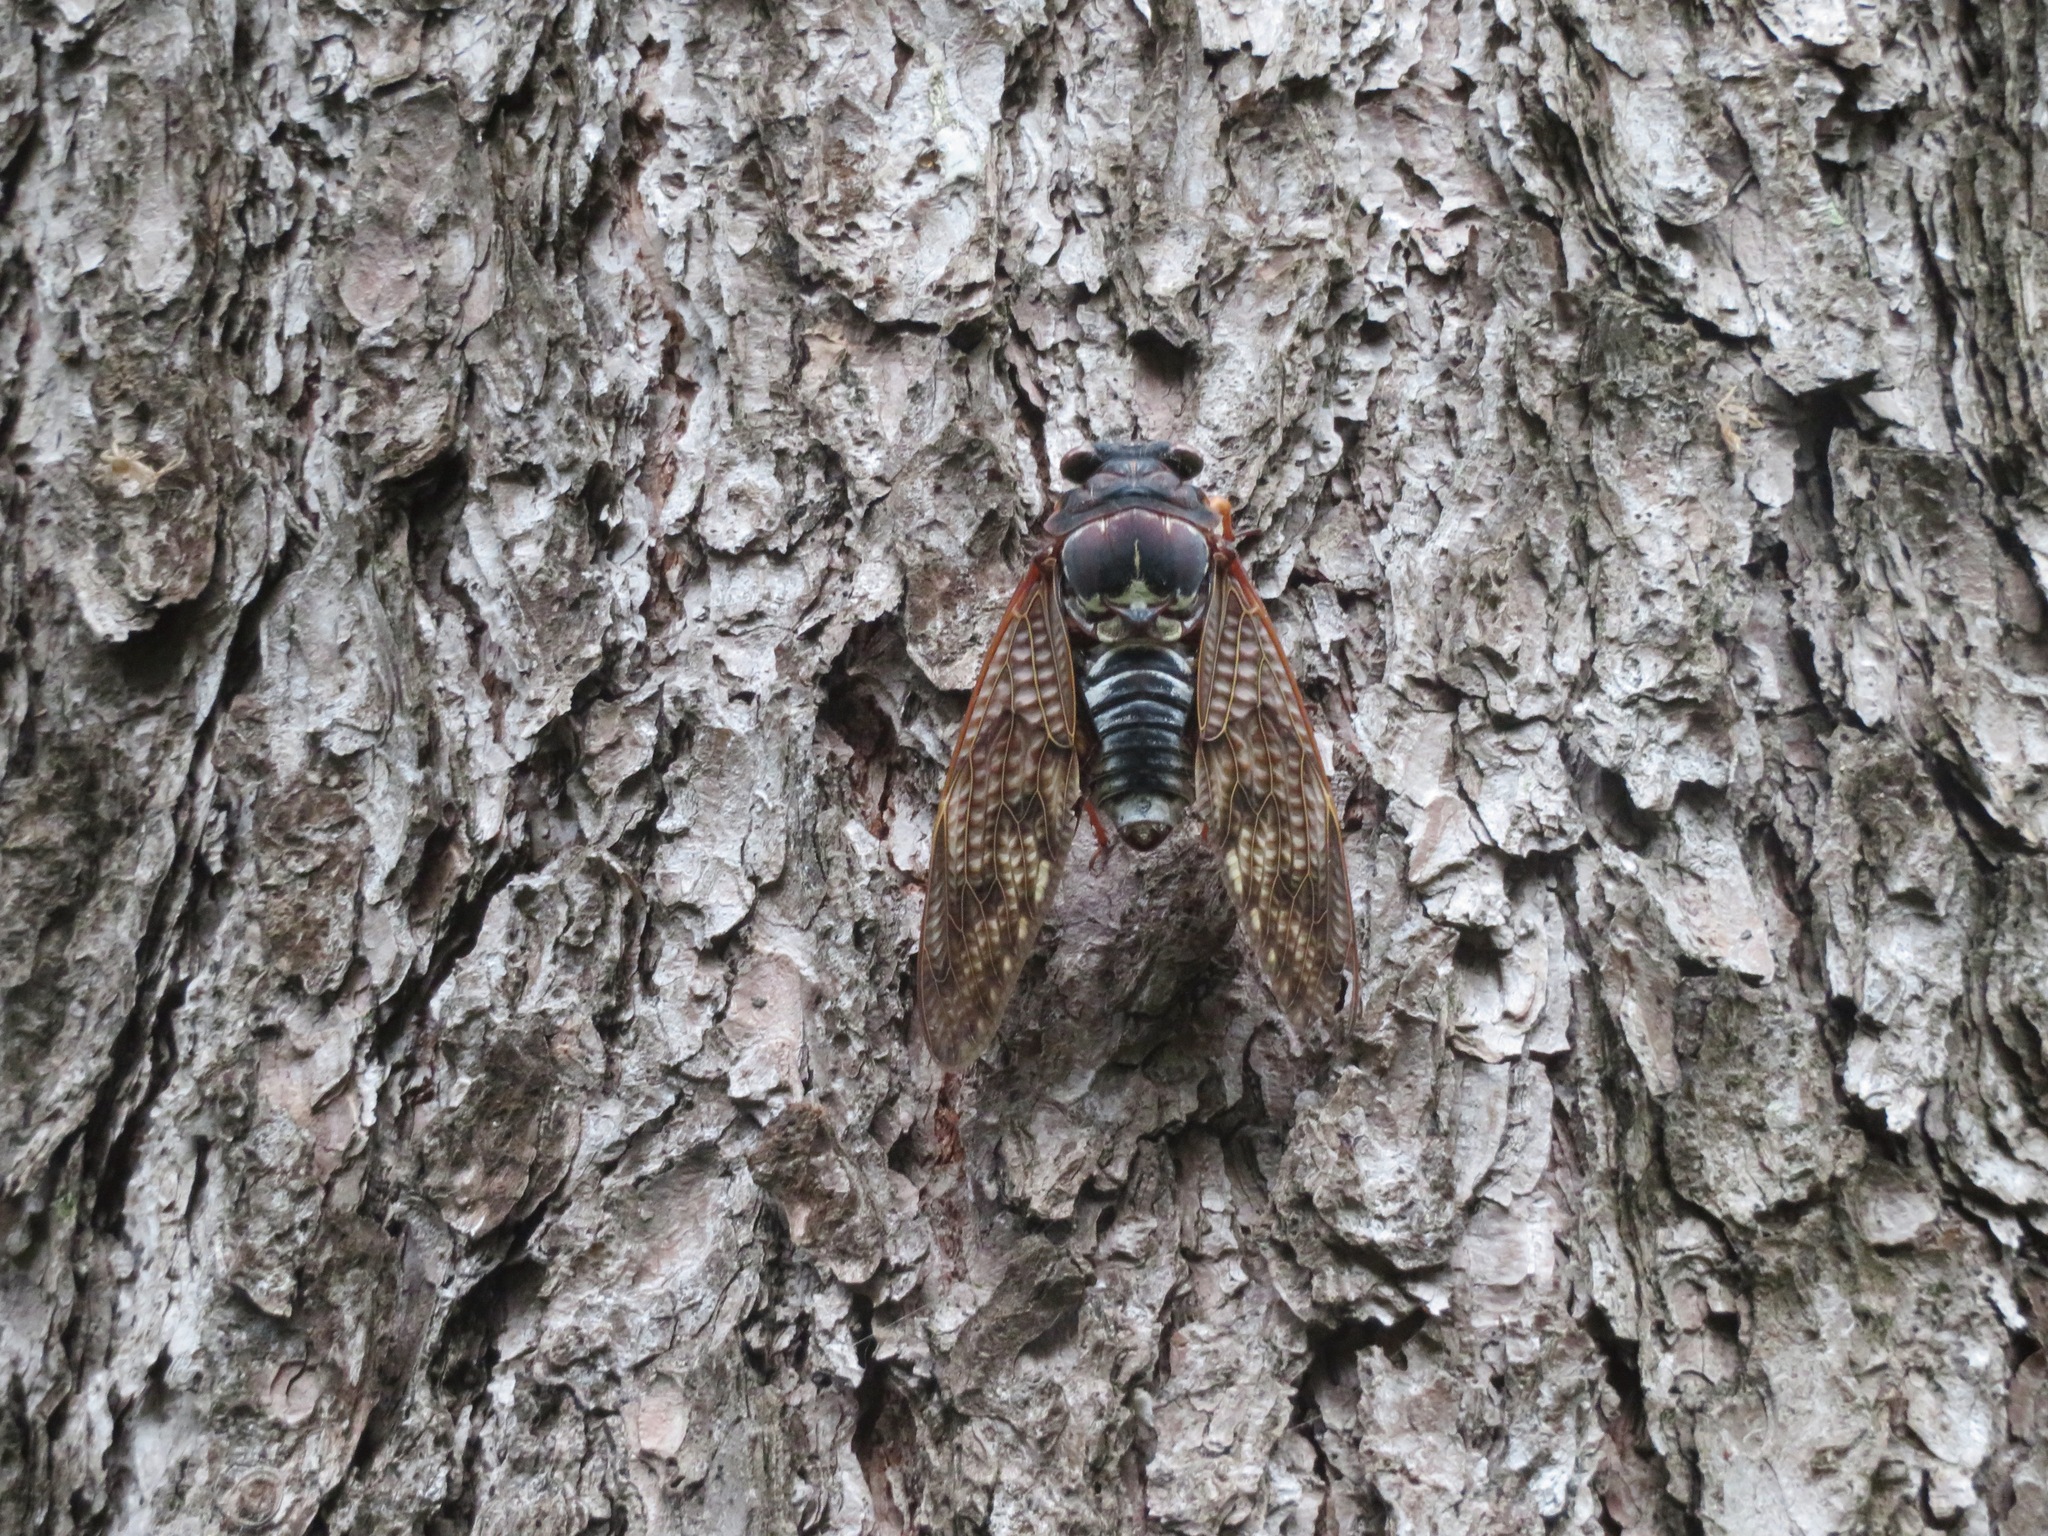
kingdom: Animalia
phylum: Arthropoda
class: Insecta
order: Hemiptera
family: Cicadidae
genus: Graptopsaltria
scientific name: Graptopsaltria nigrofuscata
